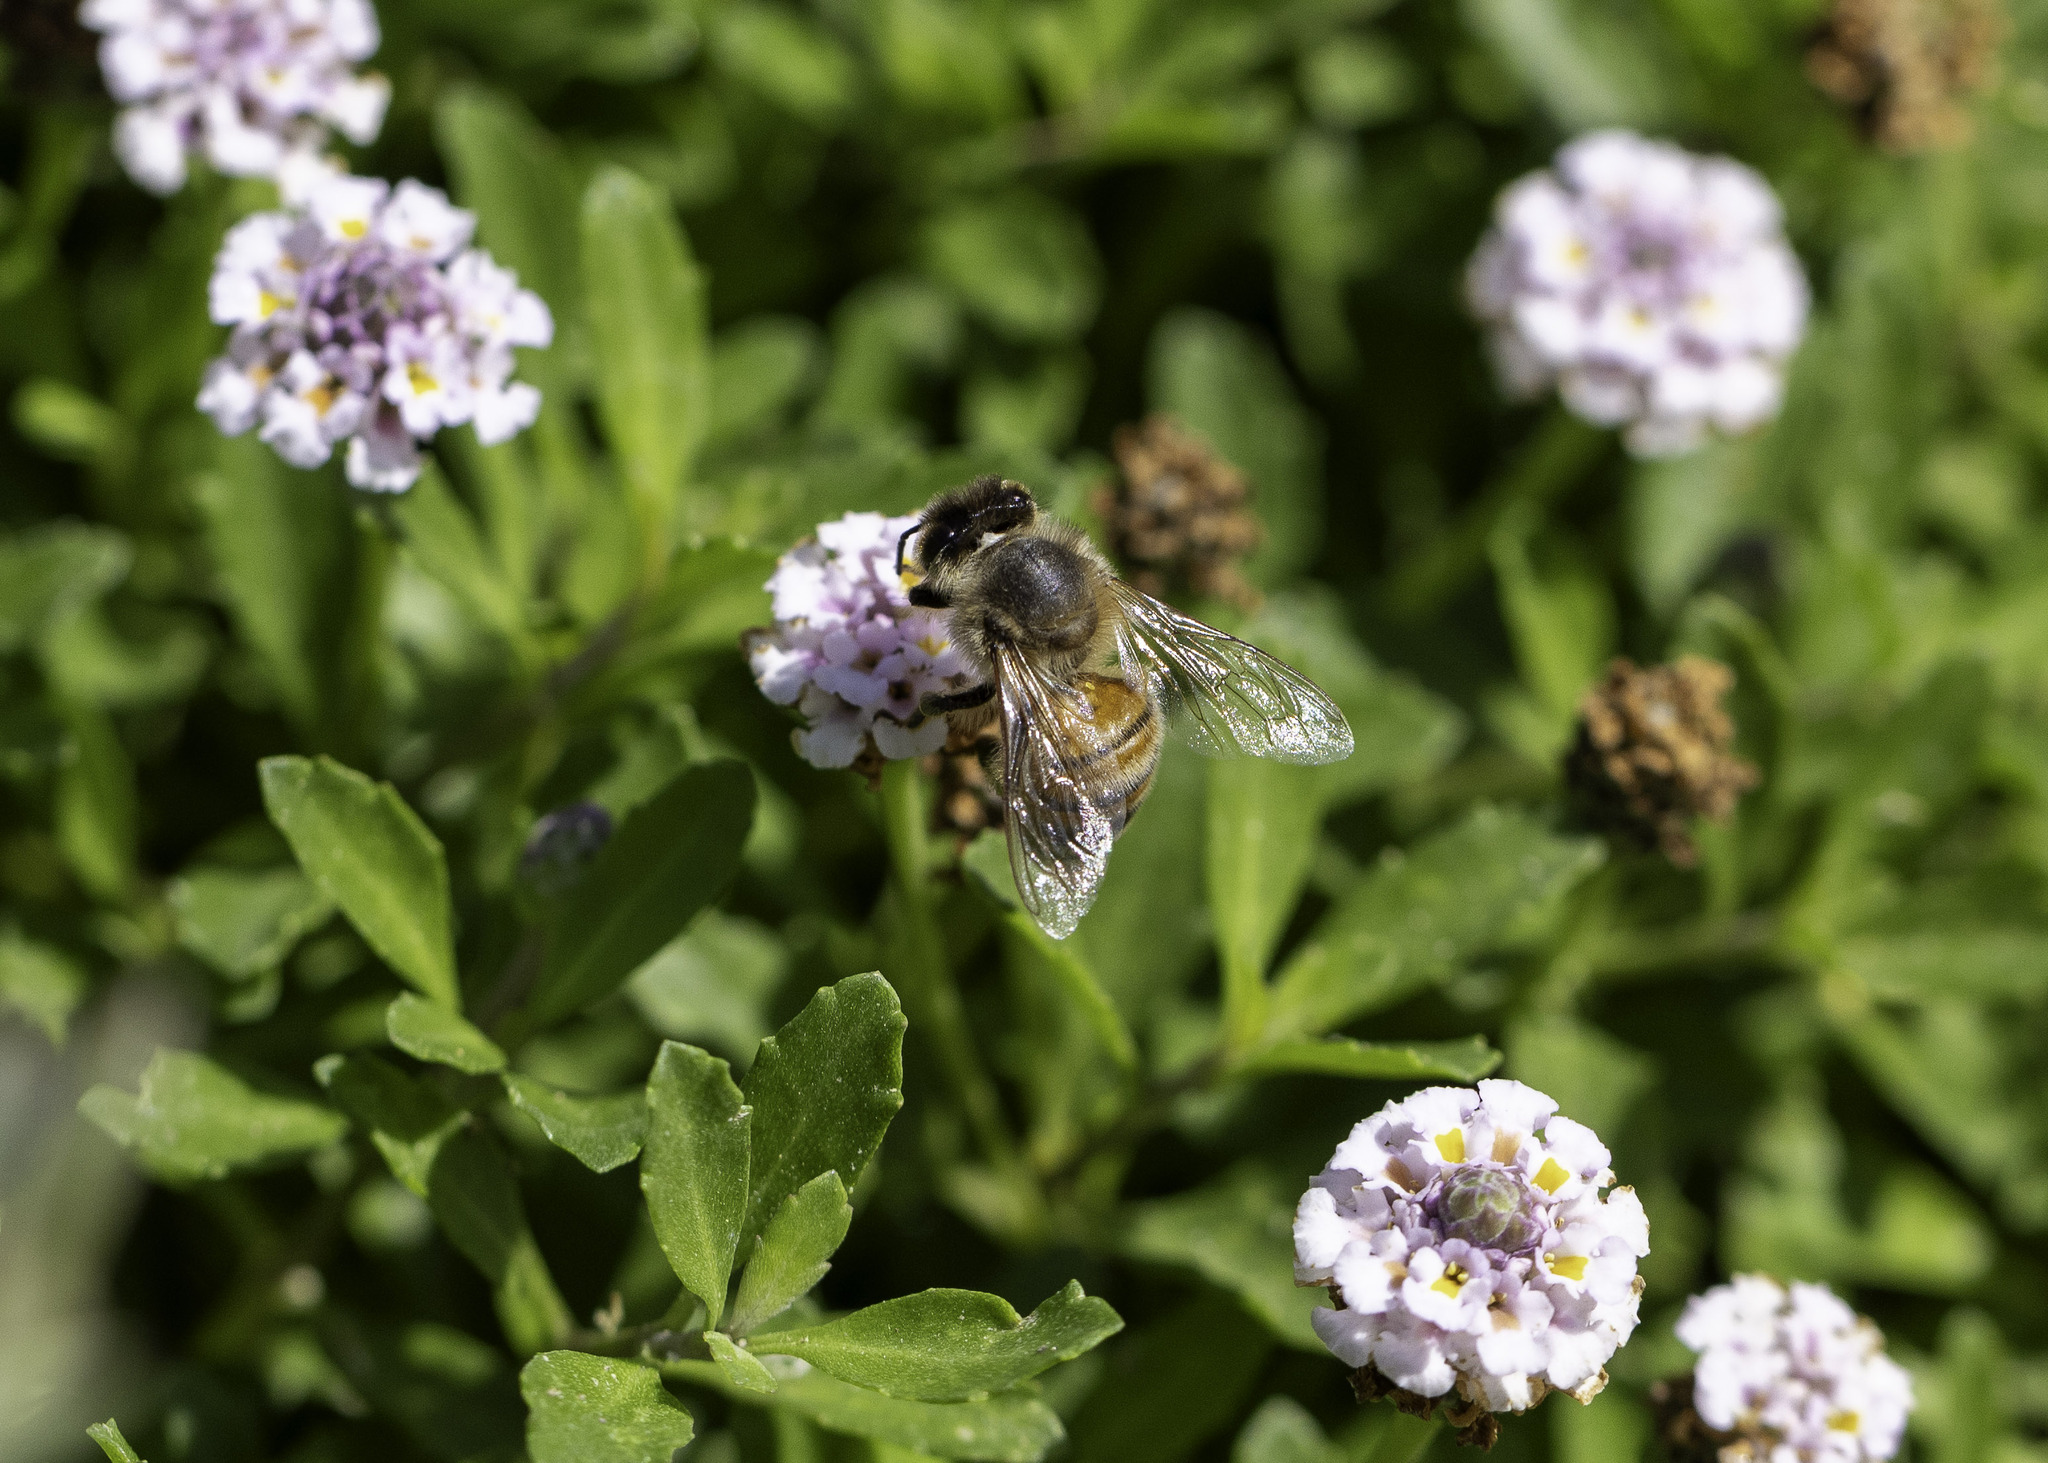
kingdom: Animalia
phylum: Arthropoda
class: Insecta
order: Hymenoptera
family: Apidae
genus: Apis
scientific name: Apis mellifera
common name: Honey bee
